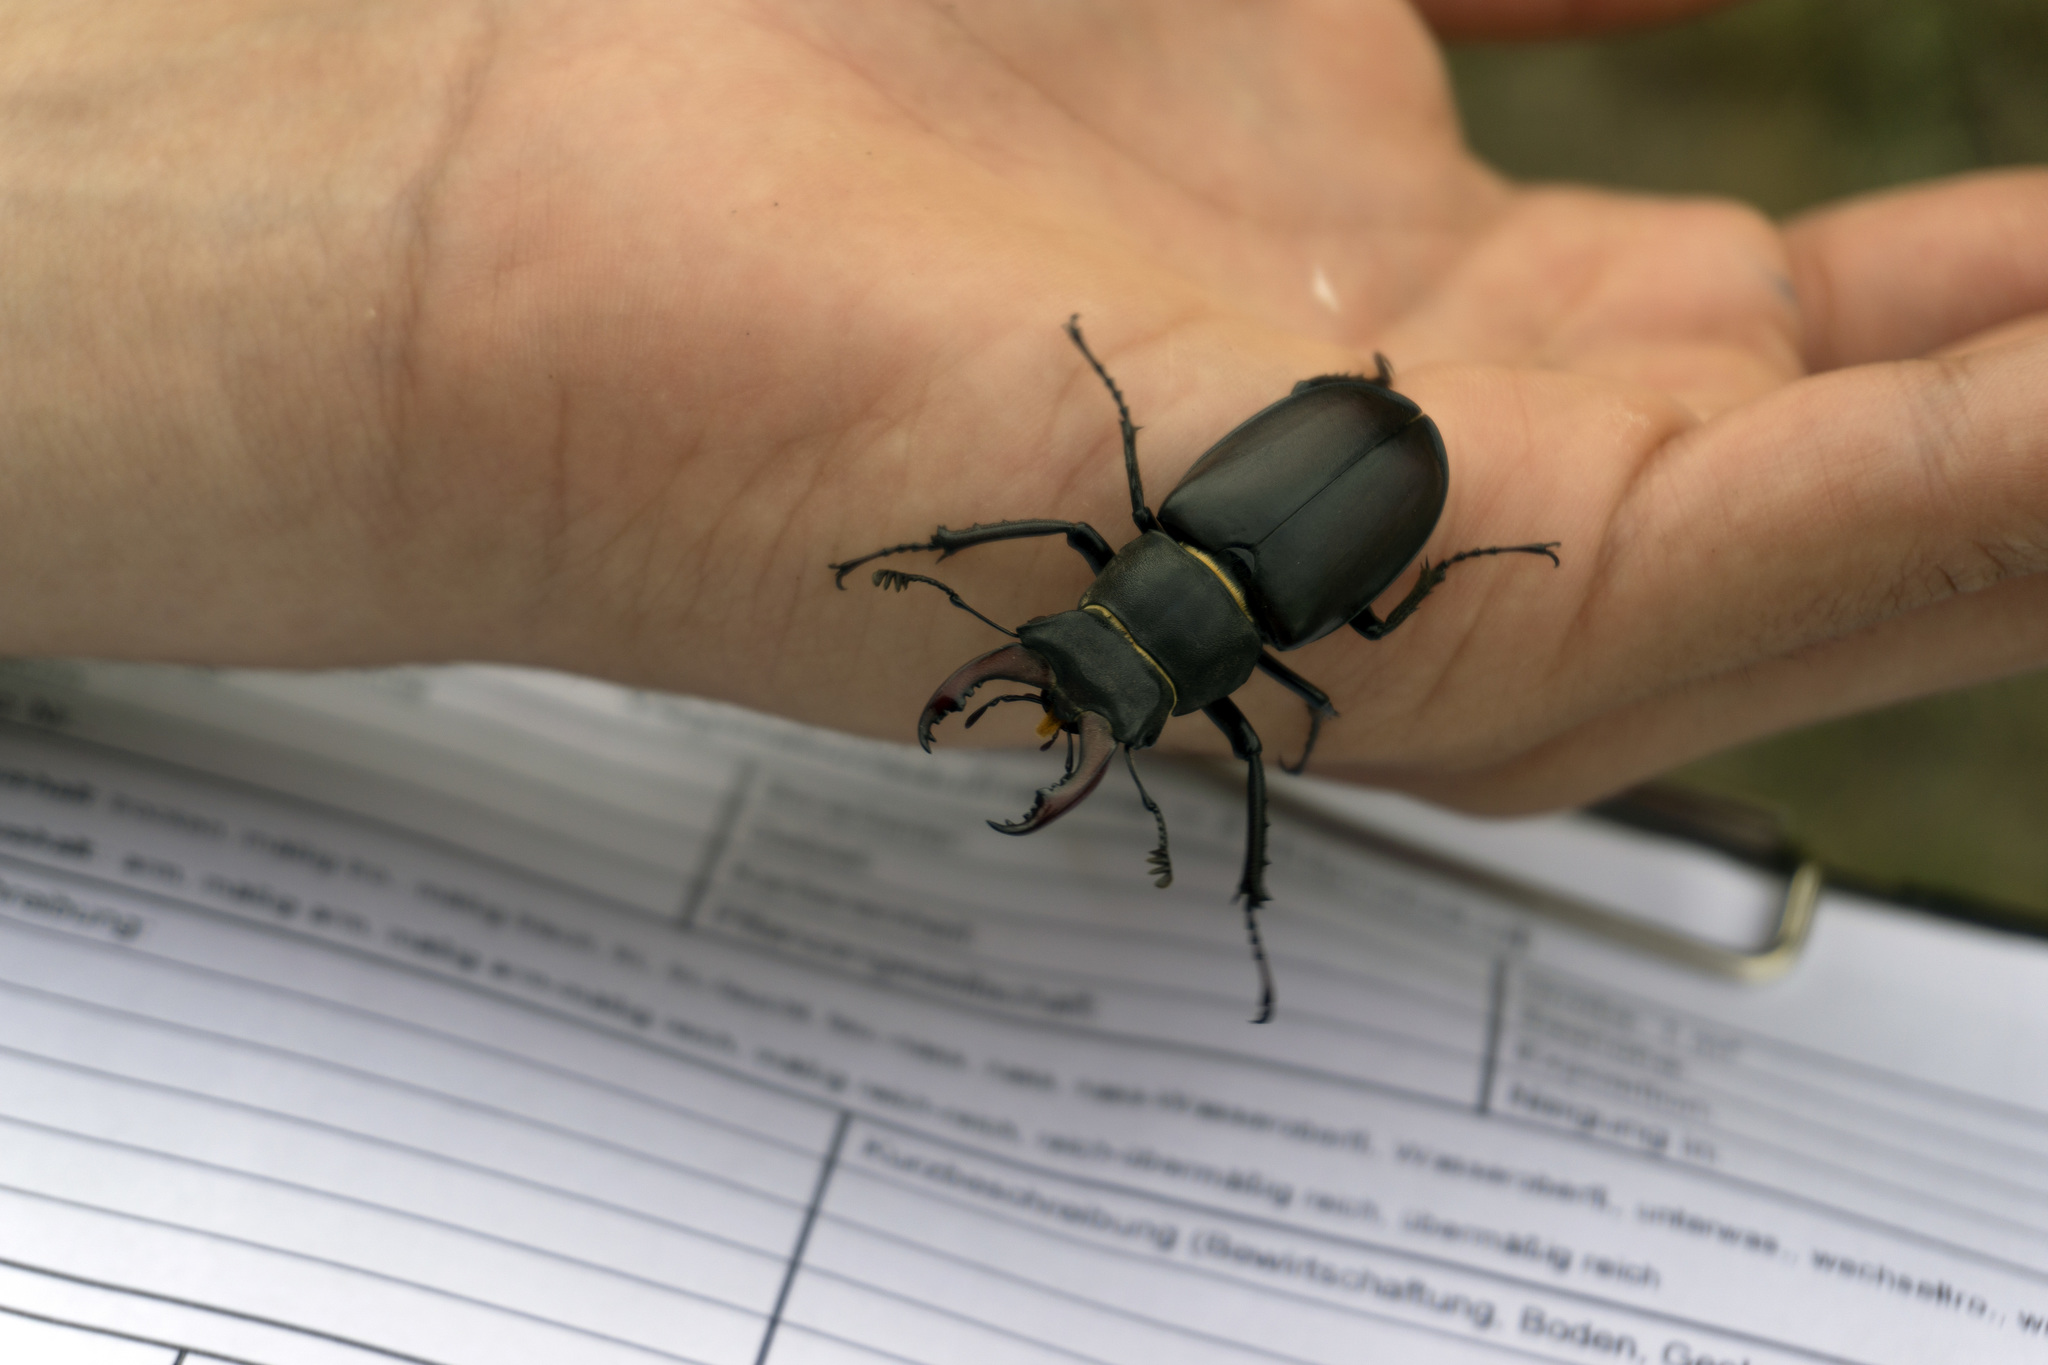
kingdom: Animalia
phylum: Arthropoda
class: Insecta
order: Coleoptera
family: Lucanidae
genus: Lucanus
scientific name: Lucanus cervus
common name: Stag beetle
